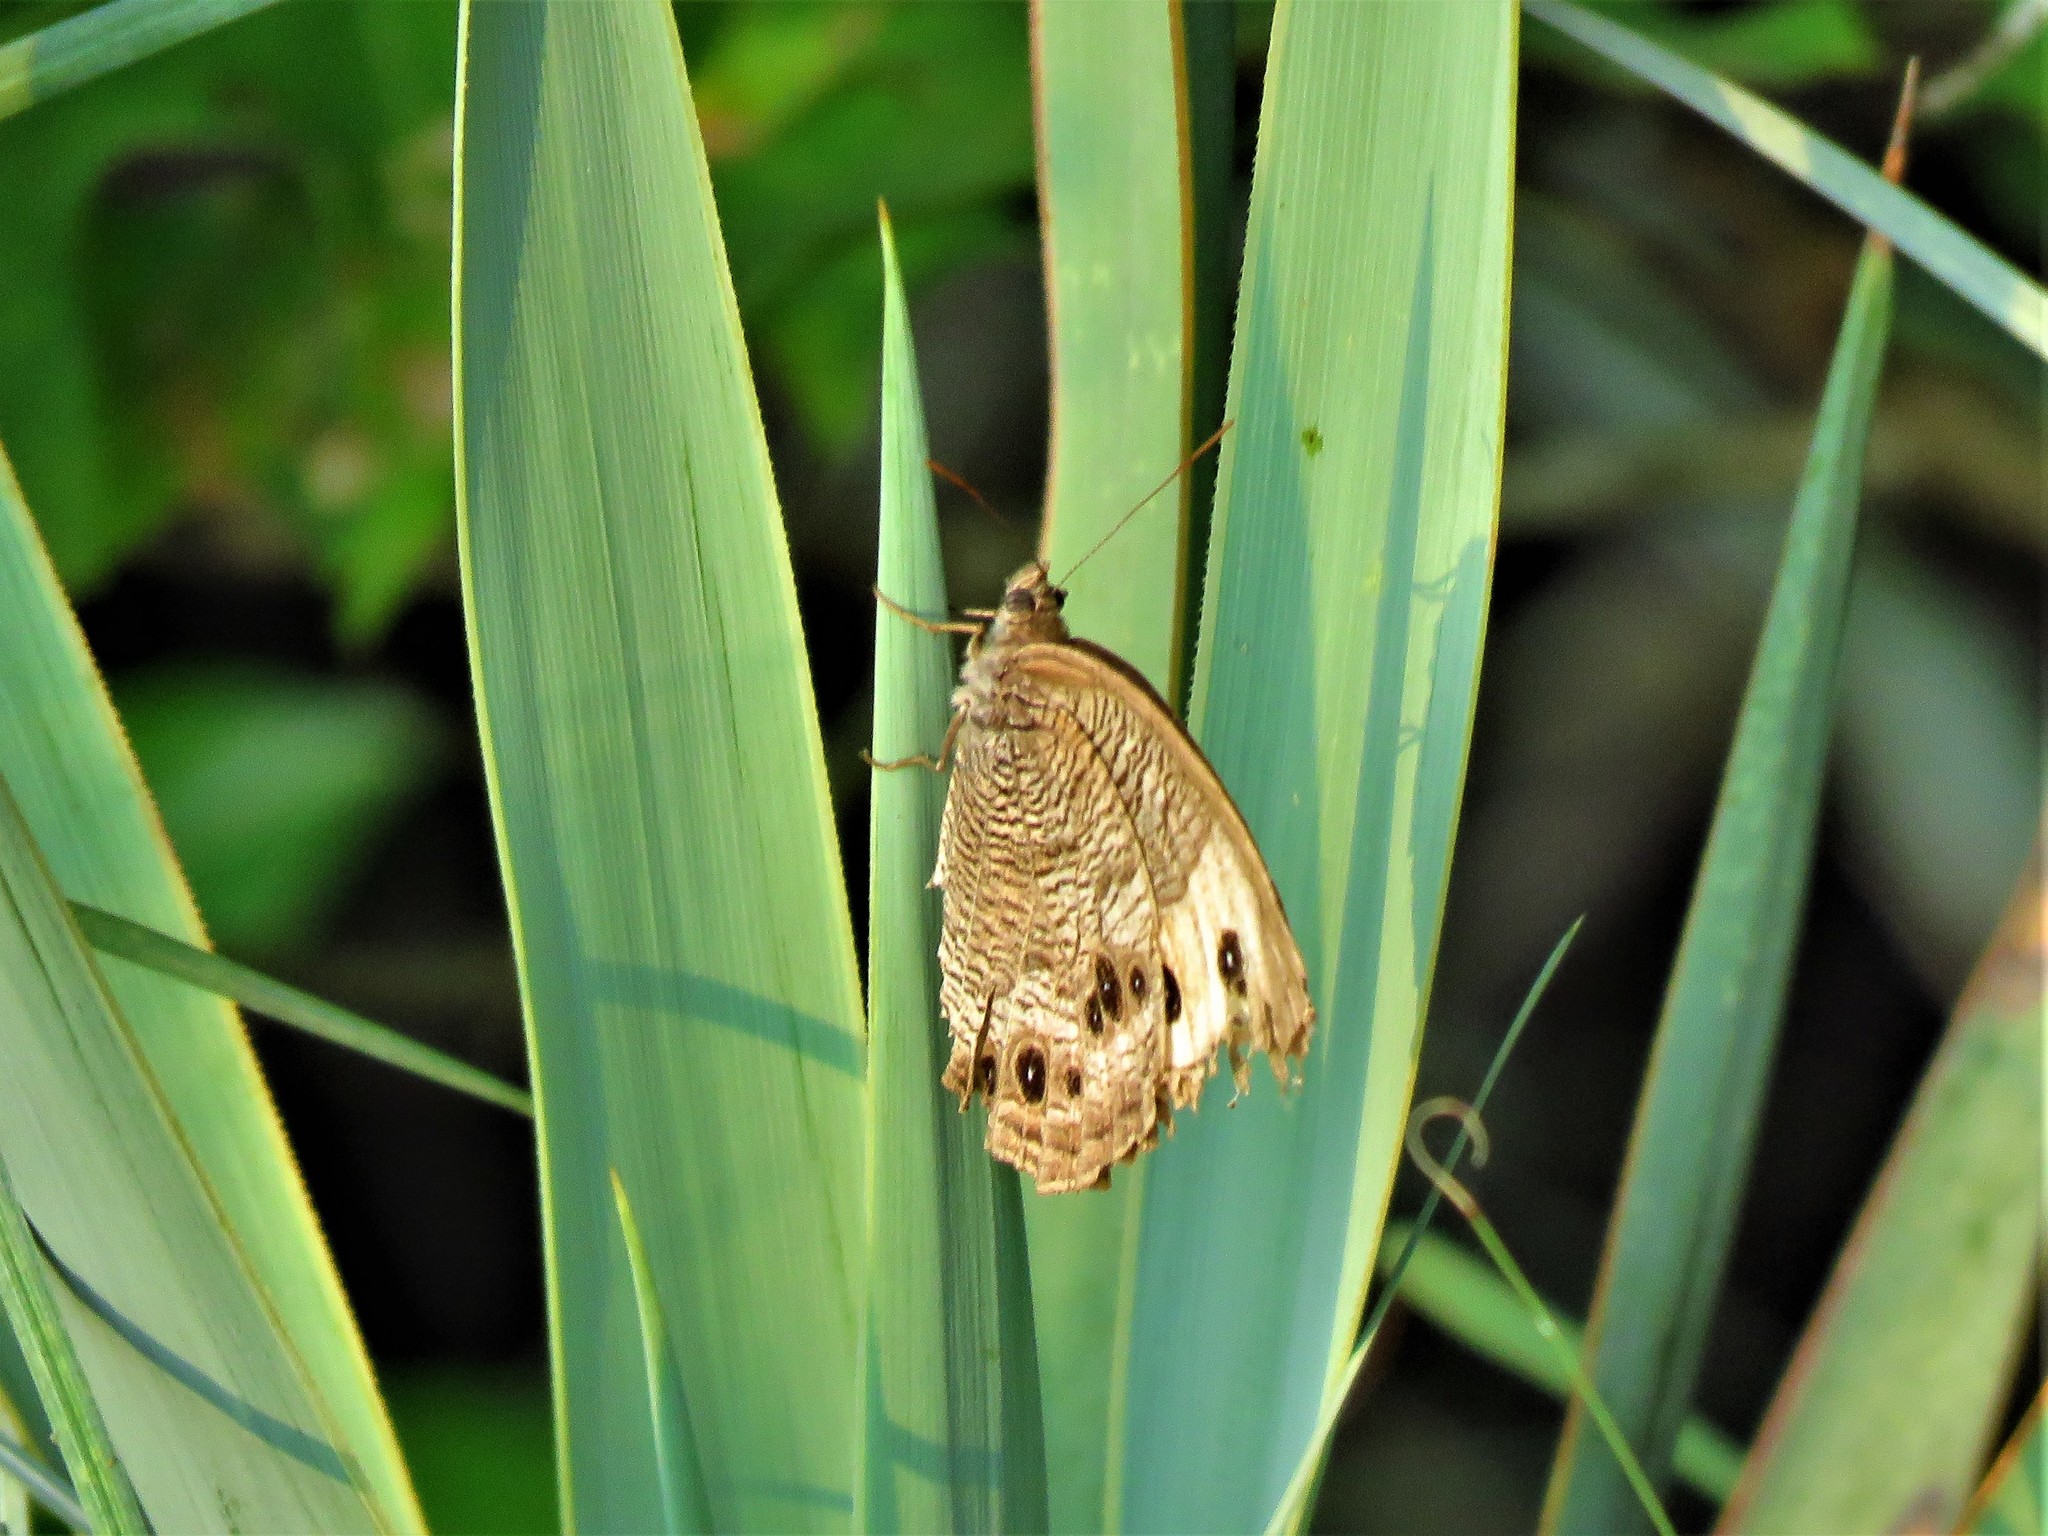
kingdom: Animalia
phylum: Arthropoda
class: Insecta
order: Lepidoptera
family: Nymphalidae
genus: Cercyonis
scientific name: Cercyonis pegala
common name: Common wood-nymph
